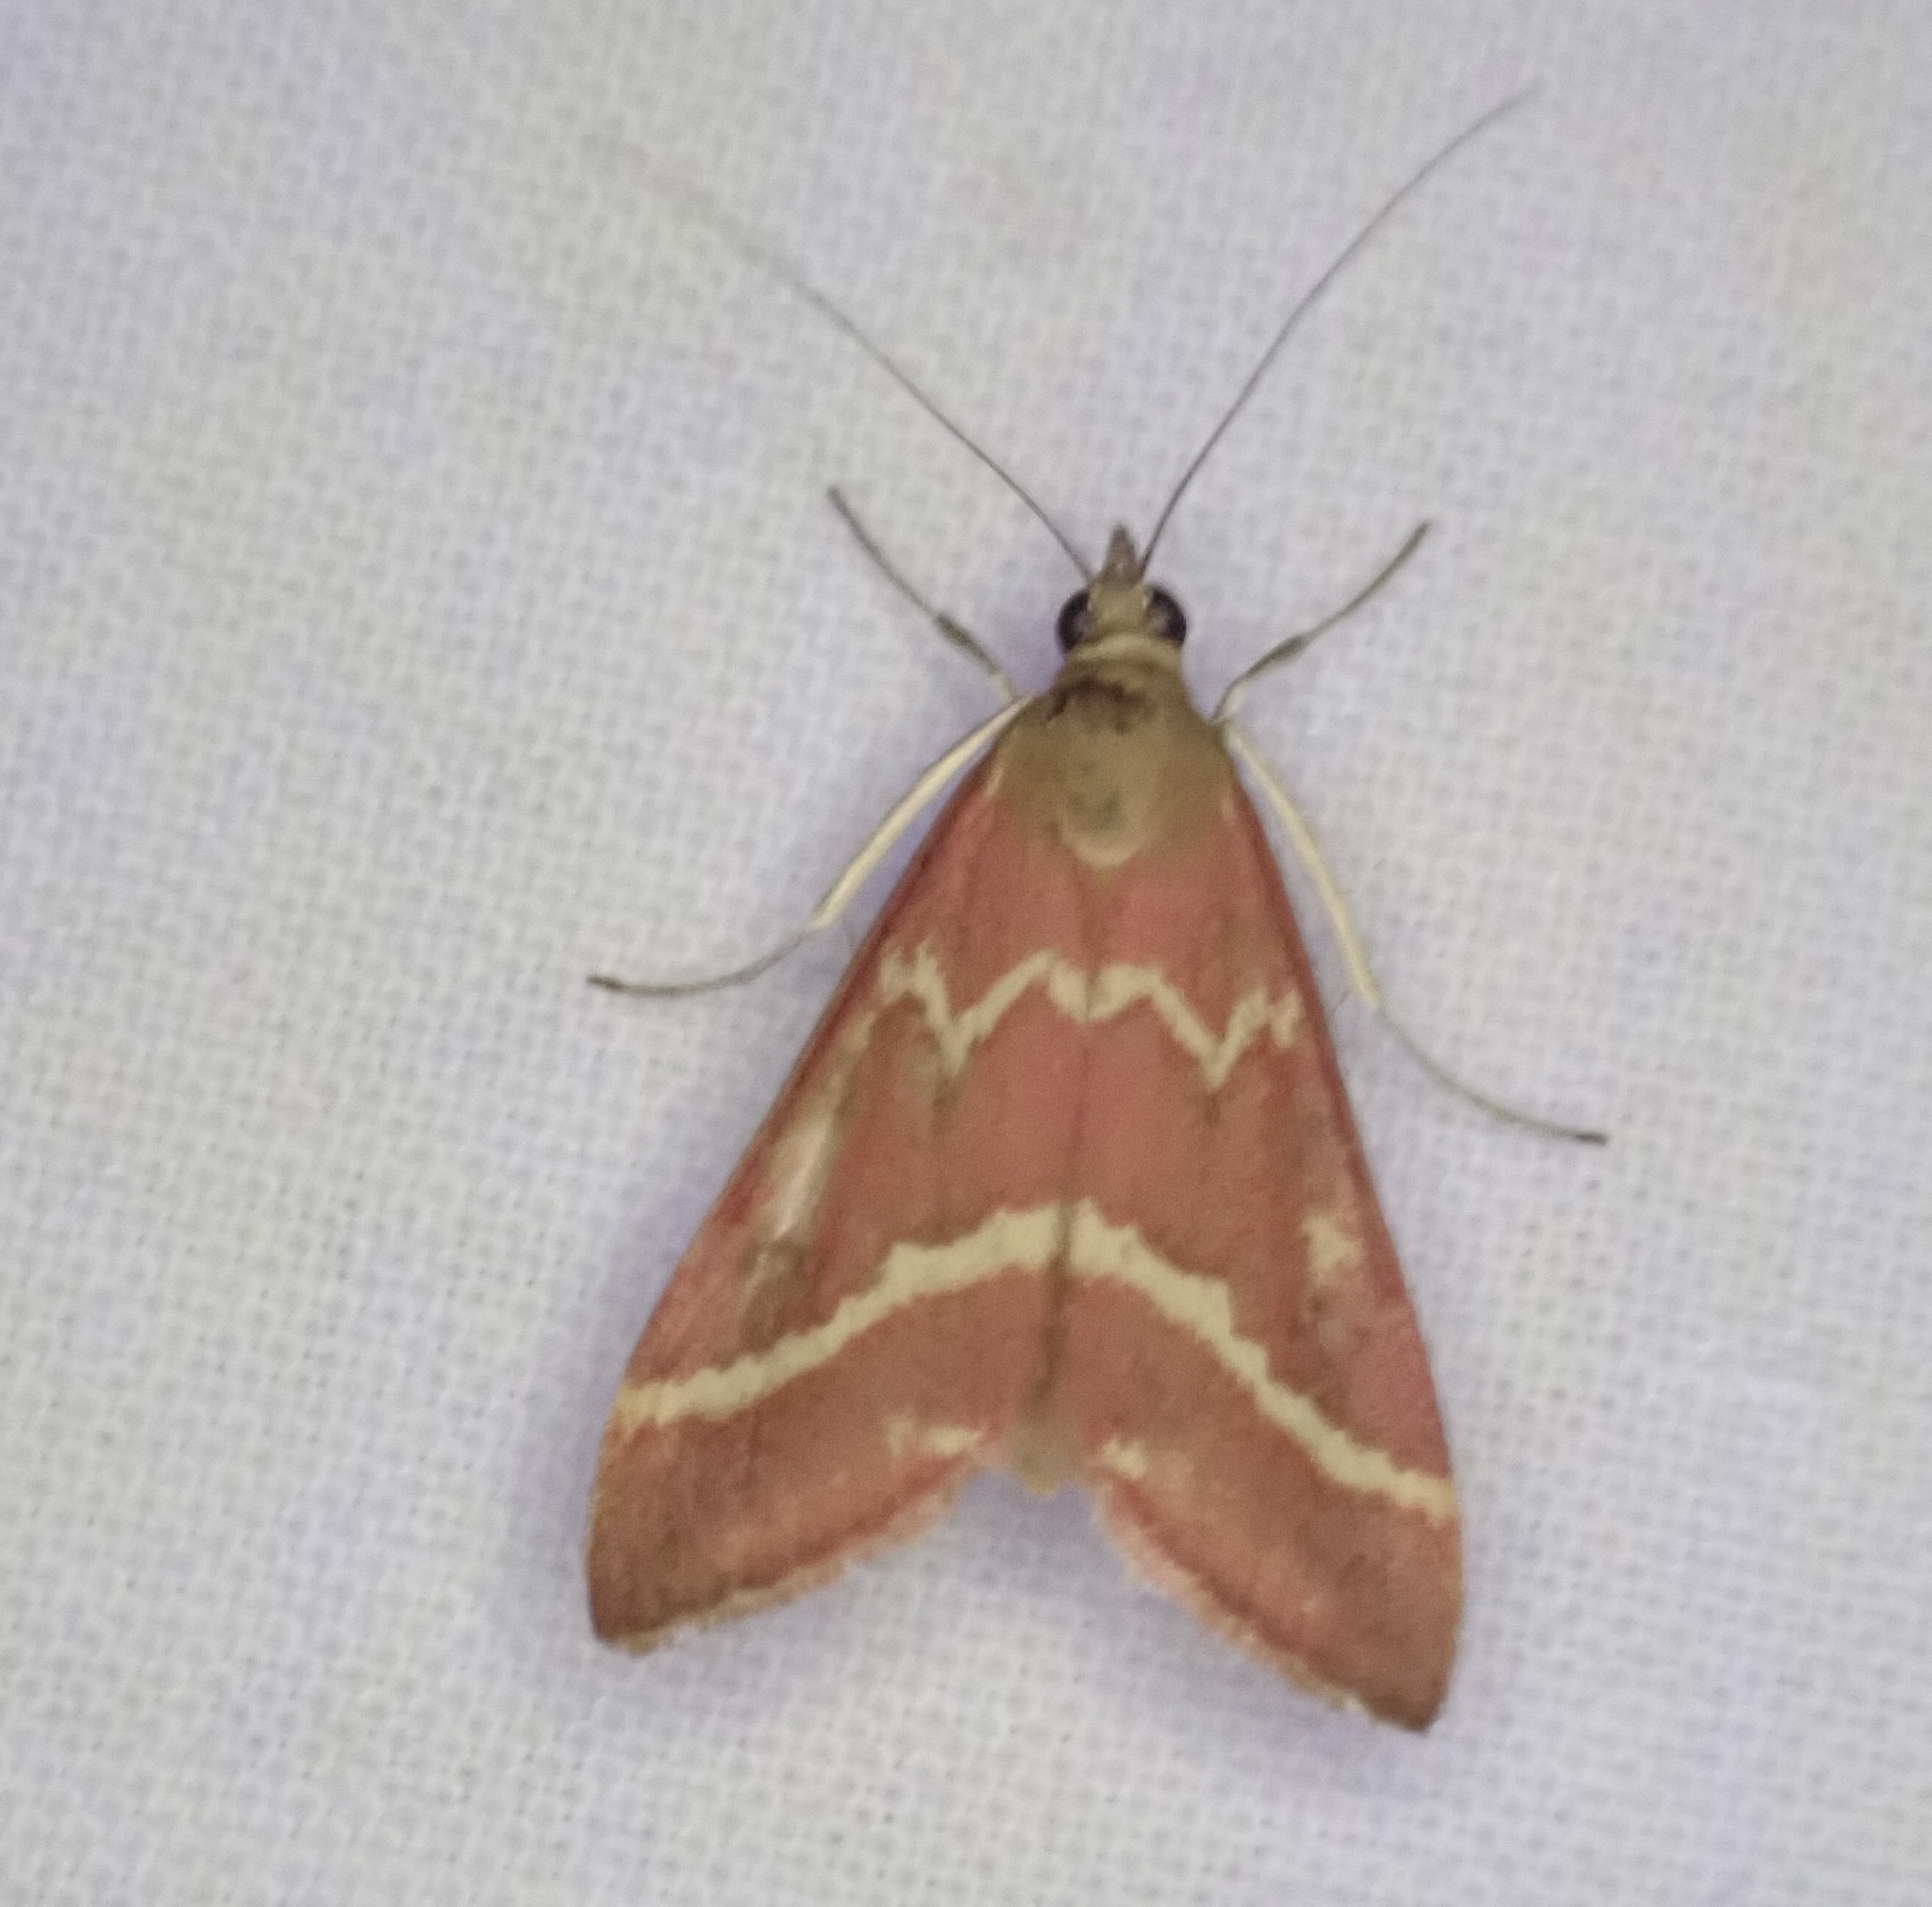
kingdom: Animalia
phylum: Arthropoda
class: Insecta
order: Lepidoptera
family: Crambidae
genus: Pyrausta
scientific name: Pyrausta volupialis
